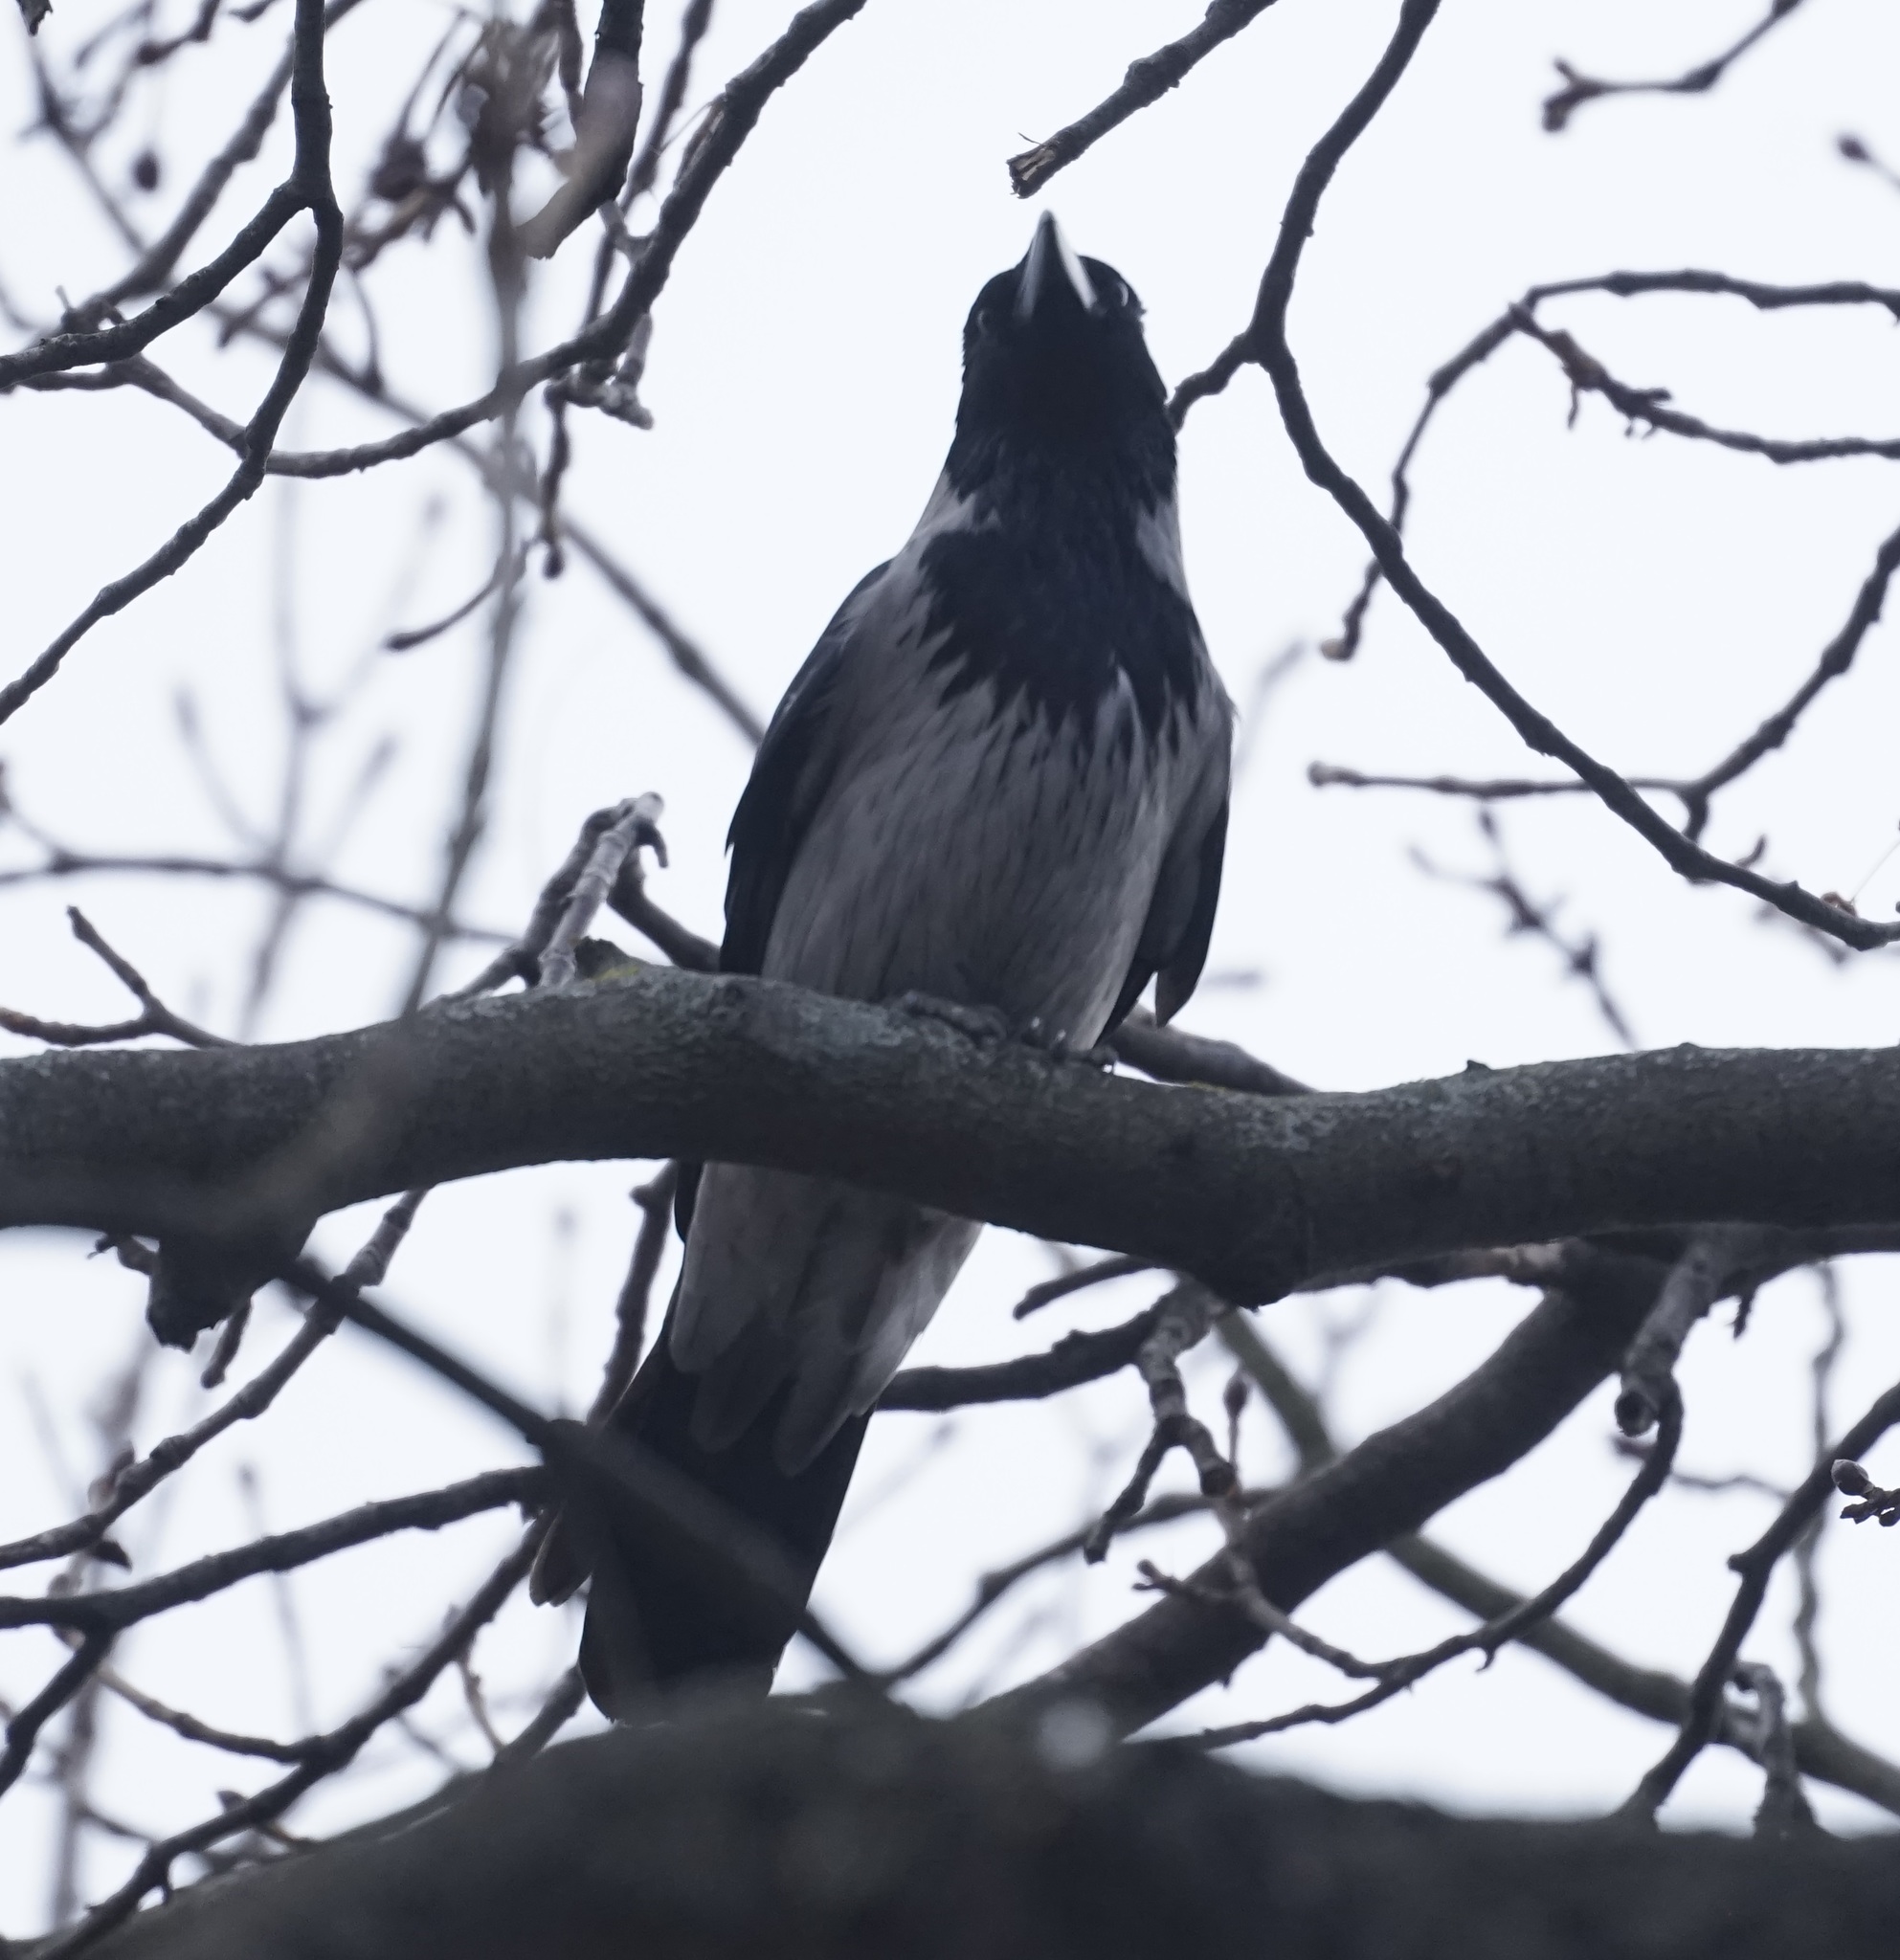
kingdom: Animalia
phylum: Chordata
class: Aves
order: Passeriformes
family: Corvidae
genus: Corvus
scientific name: Corvus cornix
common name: Hooded crow
